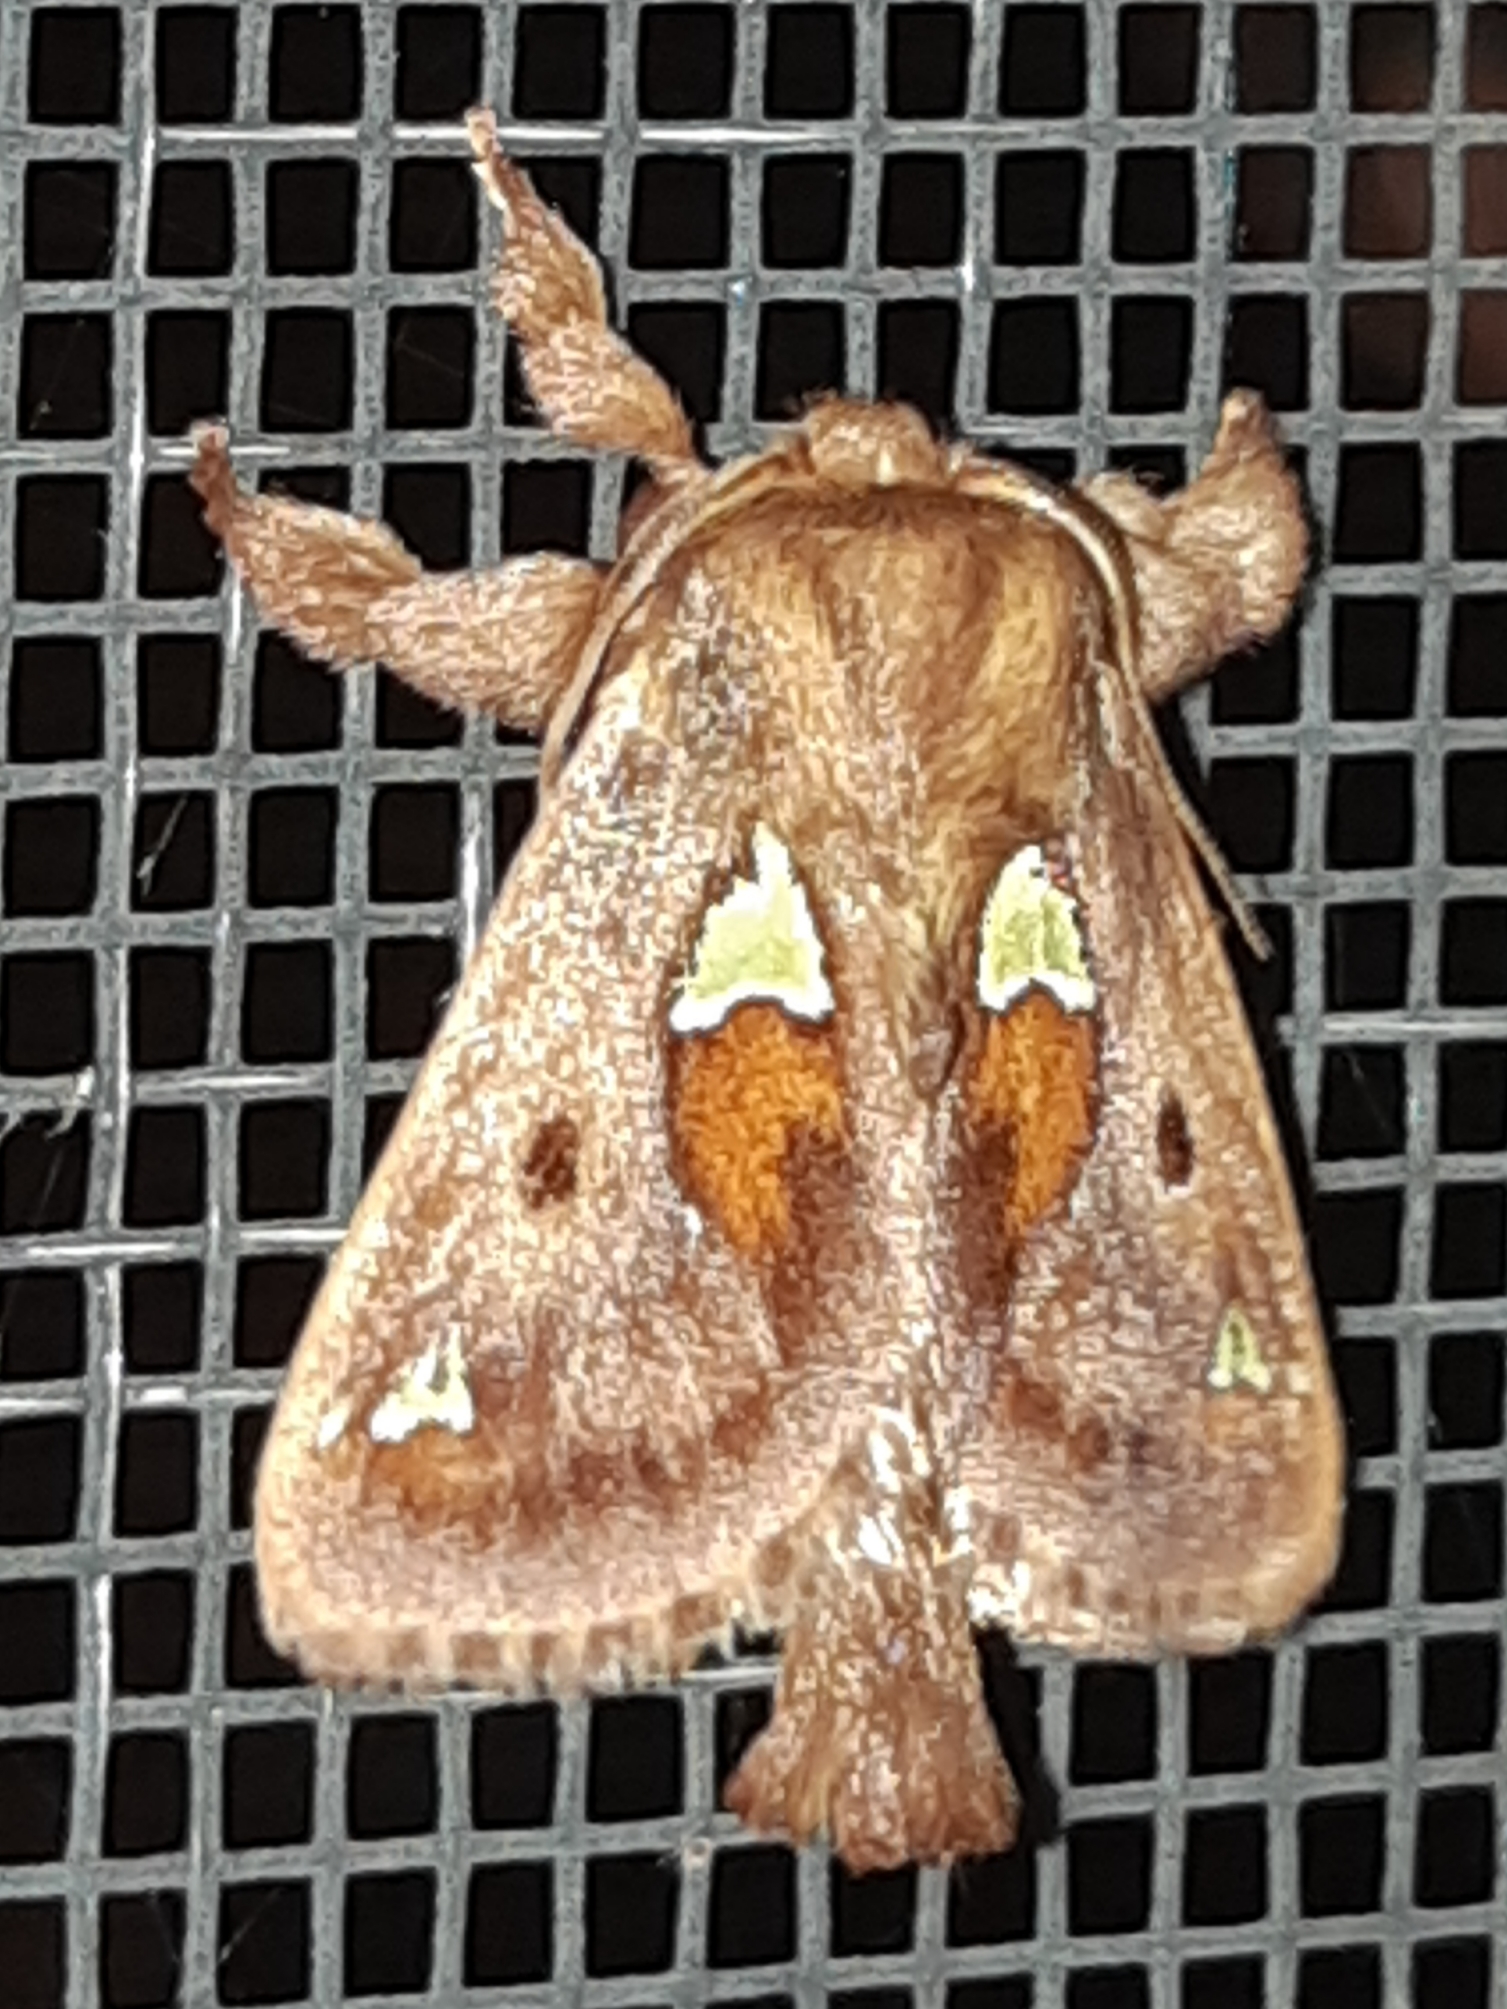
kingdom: Animalia
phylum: Arthropoda
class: Insecta
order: Lepidoptera
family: Limacodidae
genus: Euclea
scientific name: Euclea delphinii
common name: Spiny oak-slug moth
